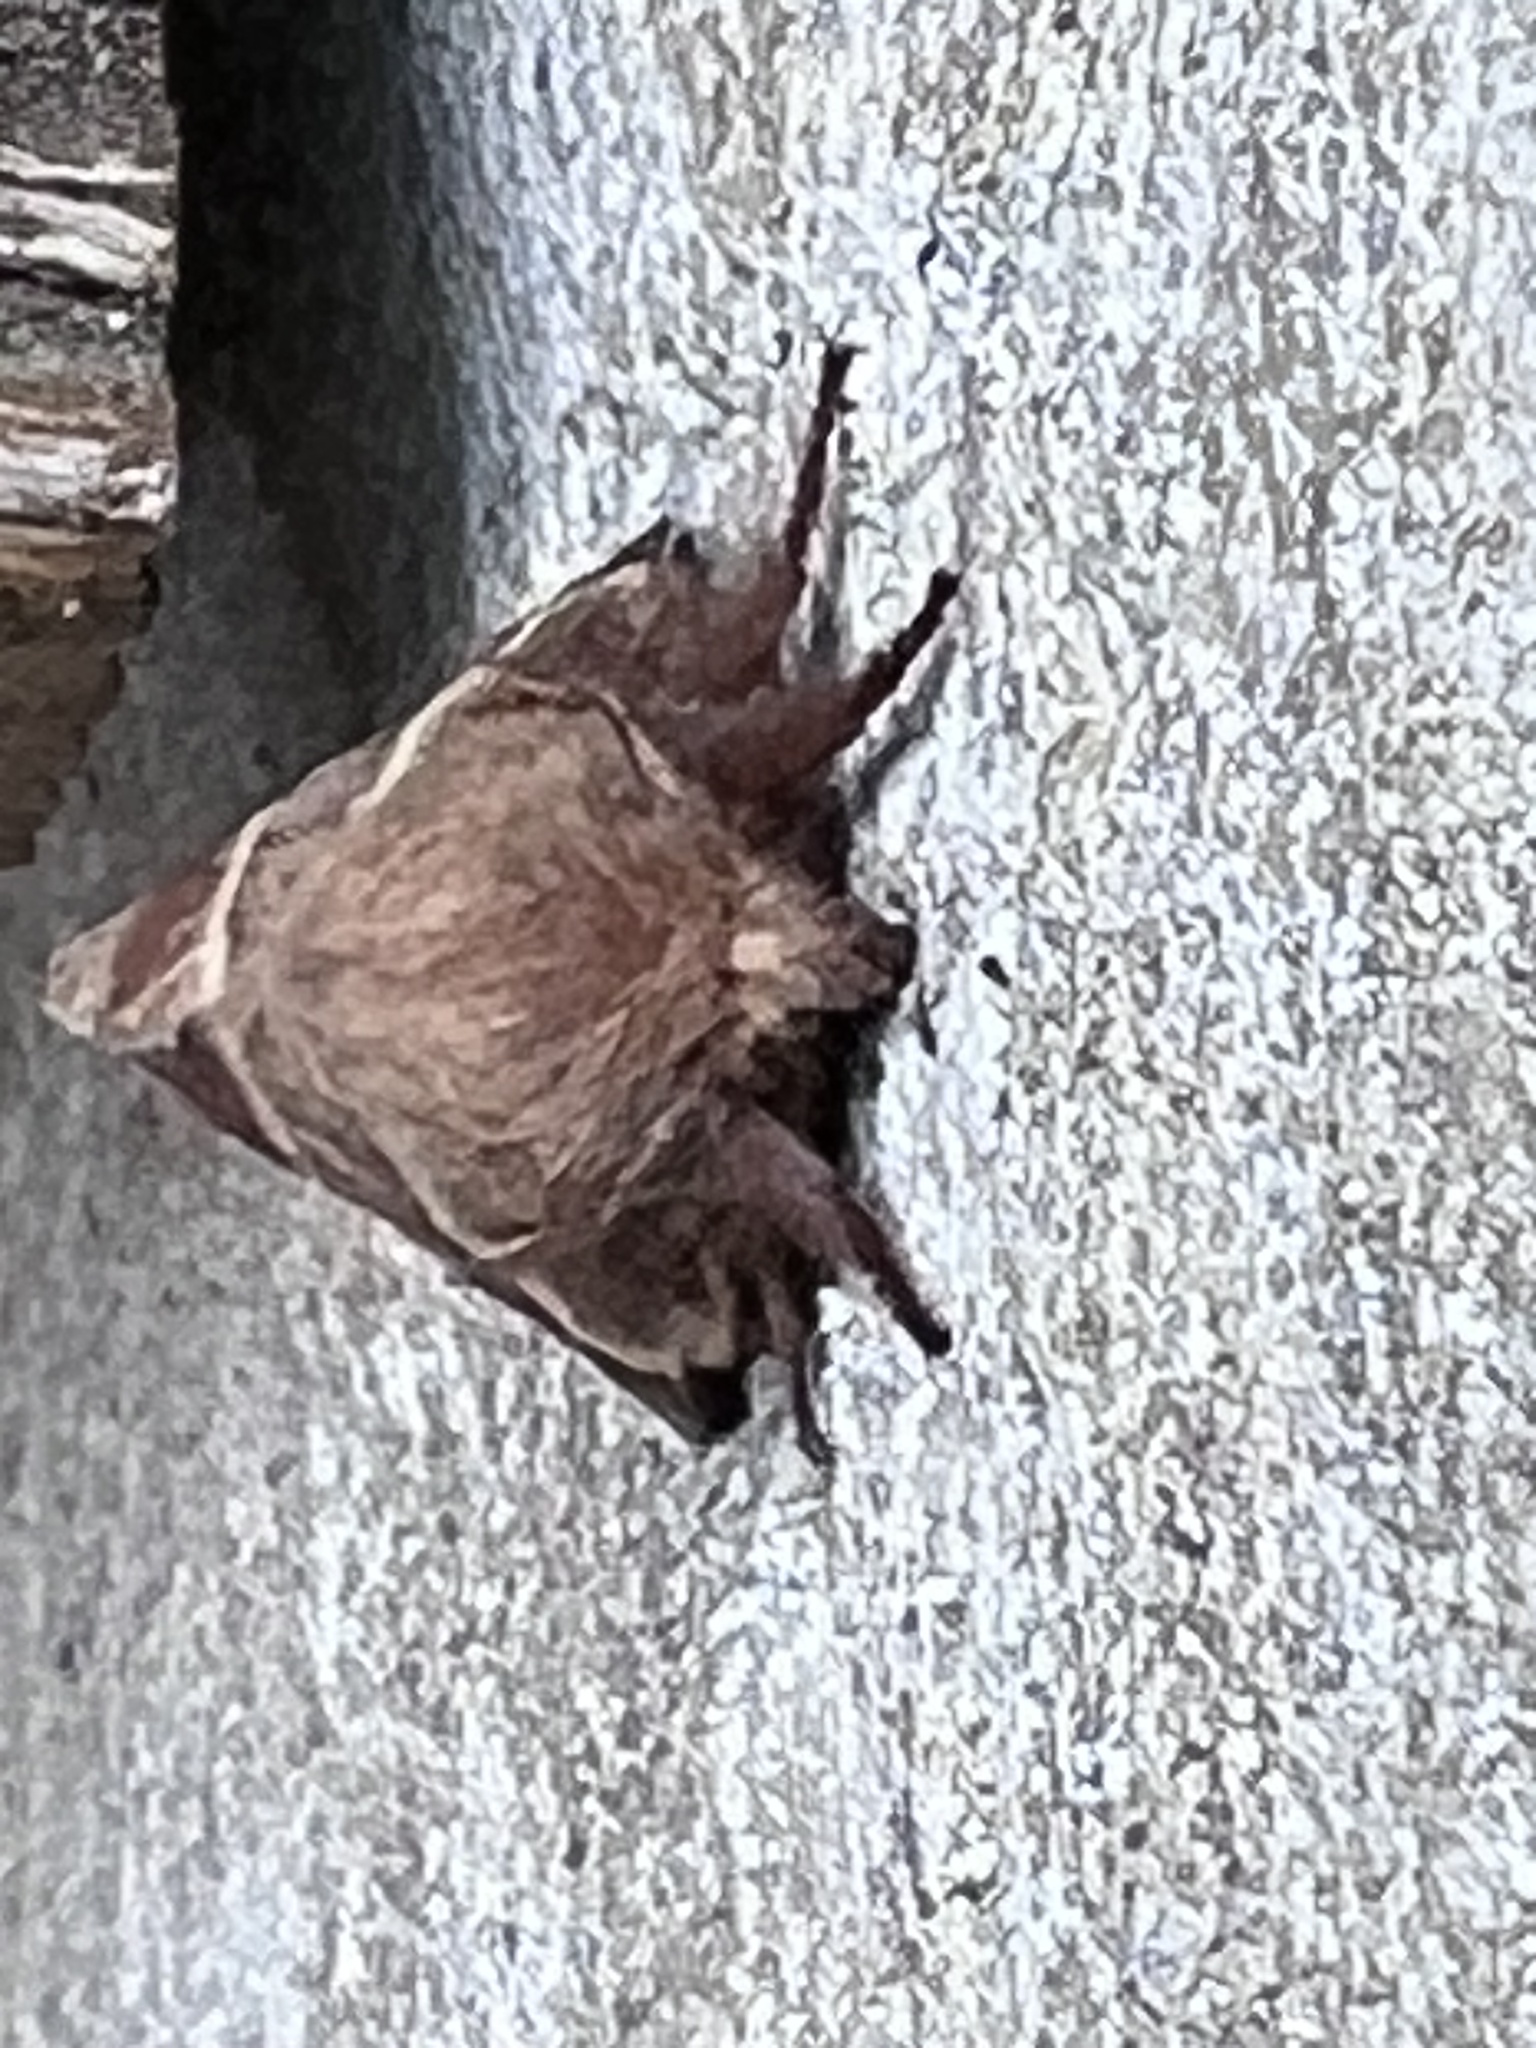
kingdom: Animalia
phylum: Arthropoda
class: Insecta
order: Lepidoptera
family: Lasiocampidae
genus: Malacosoma
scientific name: Malacosoma americana
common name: Eastern tent caterpillar moth
